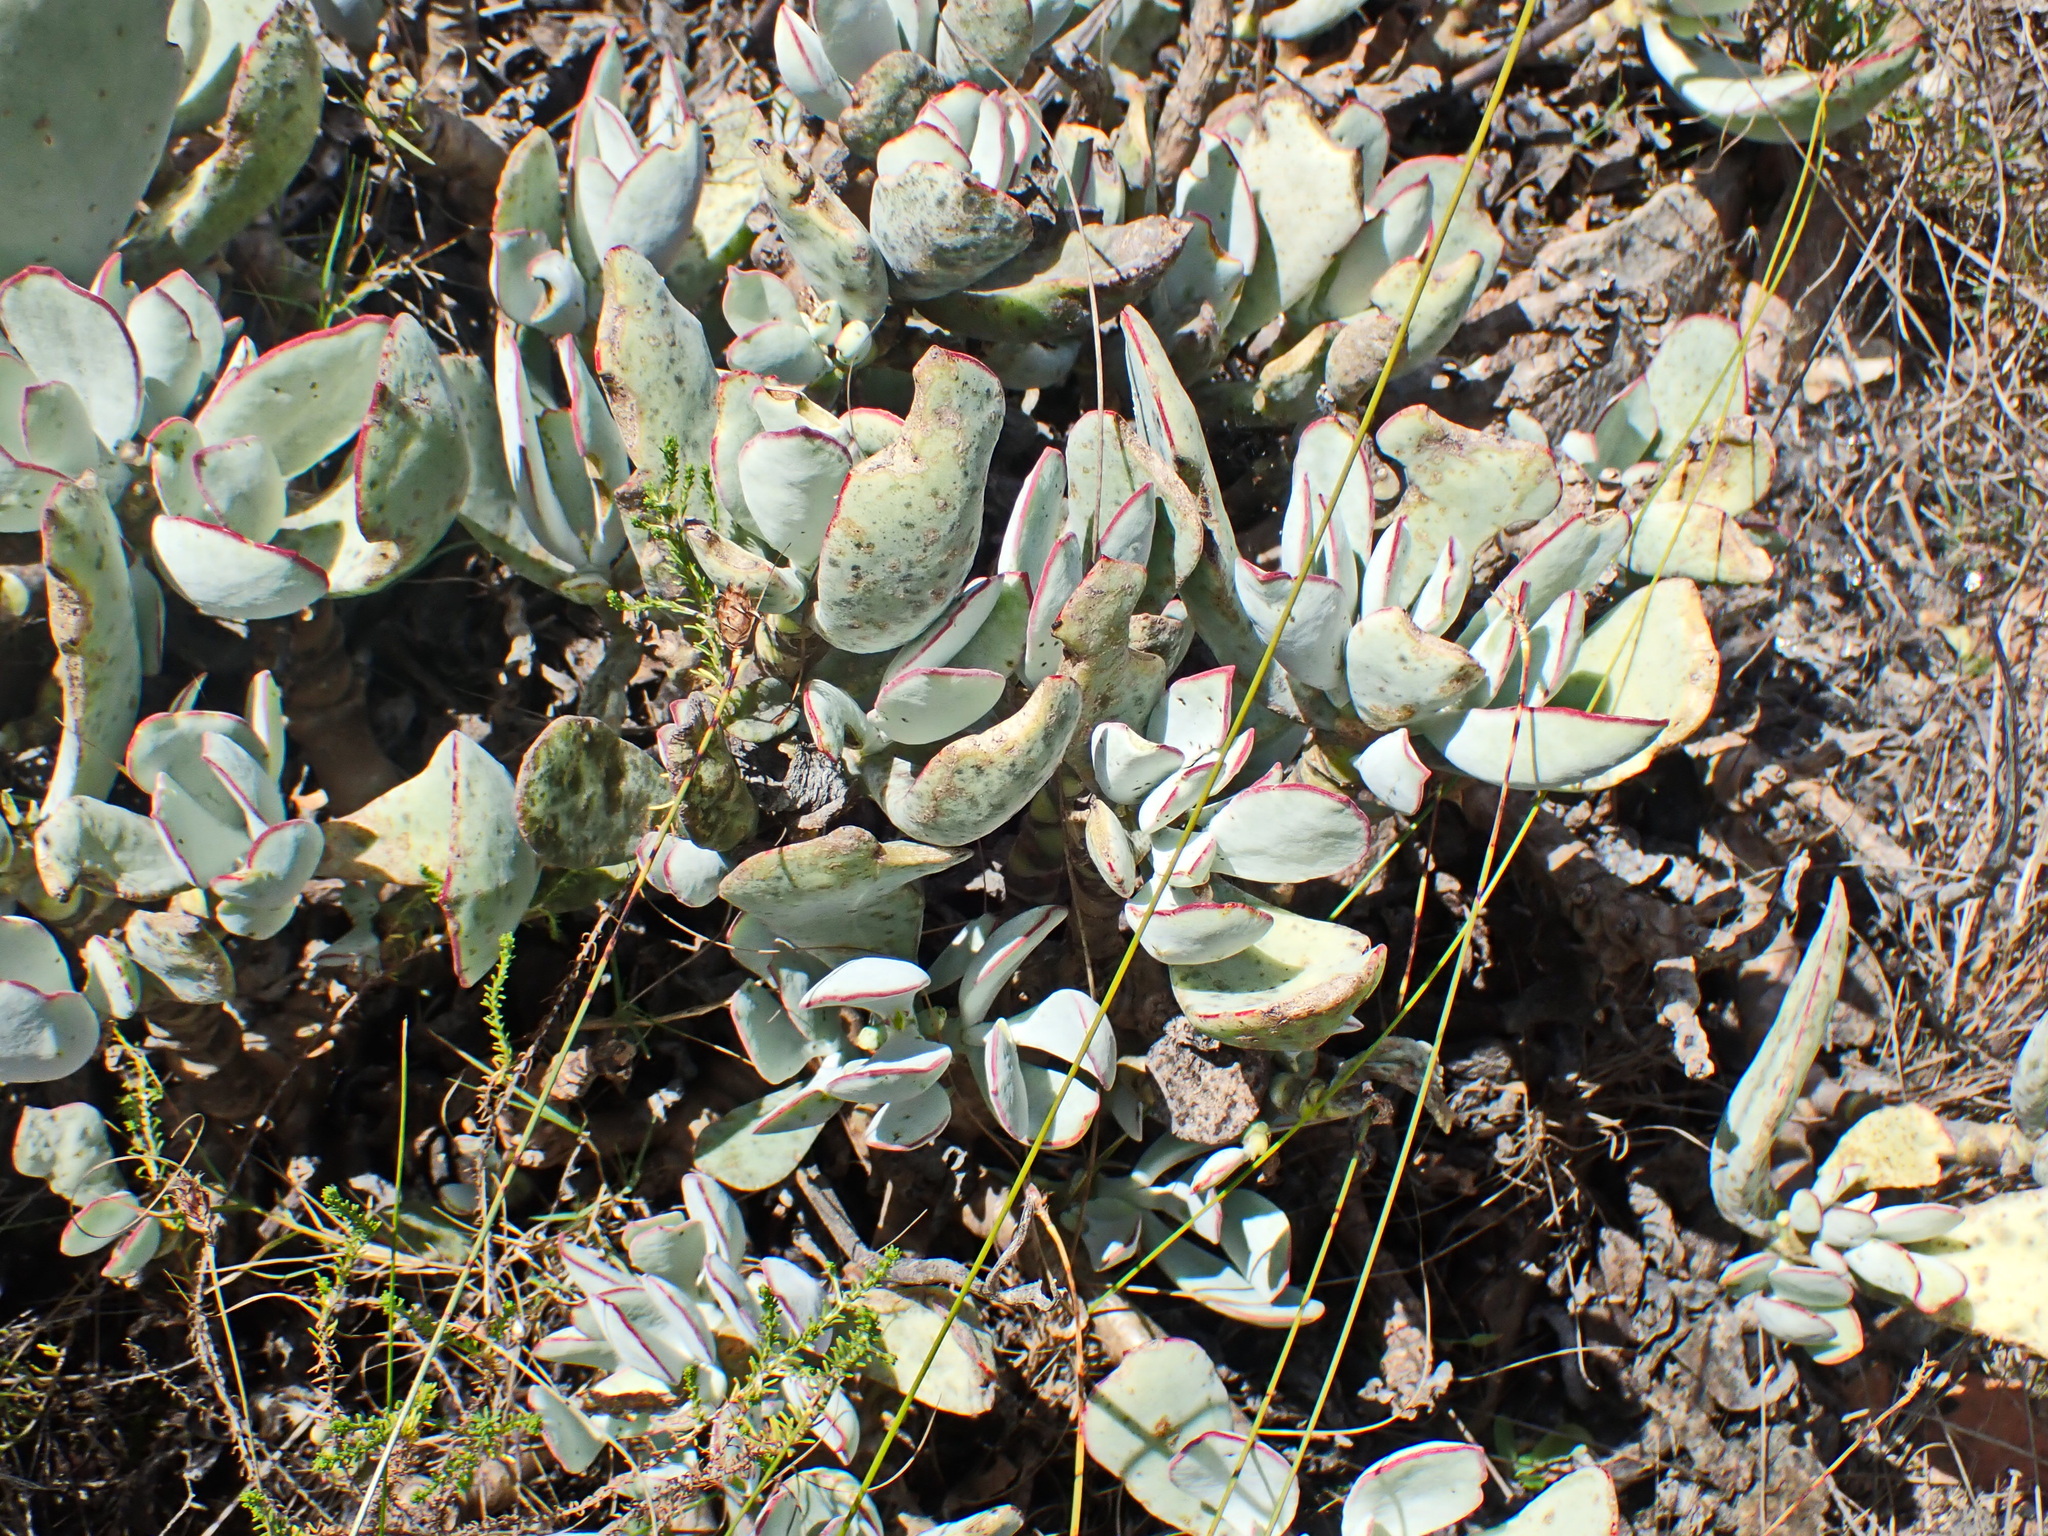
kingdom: Plantae
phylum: Tracheophyta
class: Magnoliopsida
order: Saxifragales
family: Crassulaceae
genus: Cotyledon
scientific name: Cotyledon orbiculata
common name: Pig's ear
